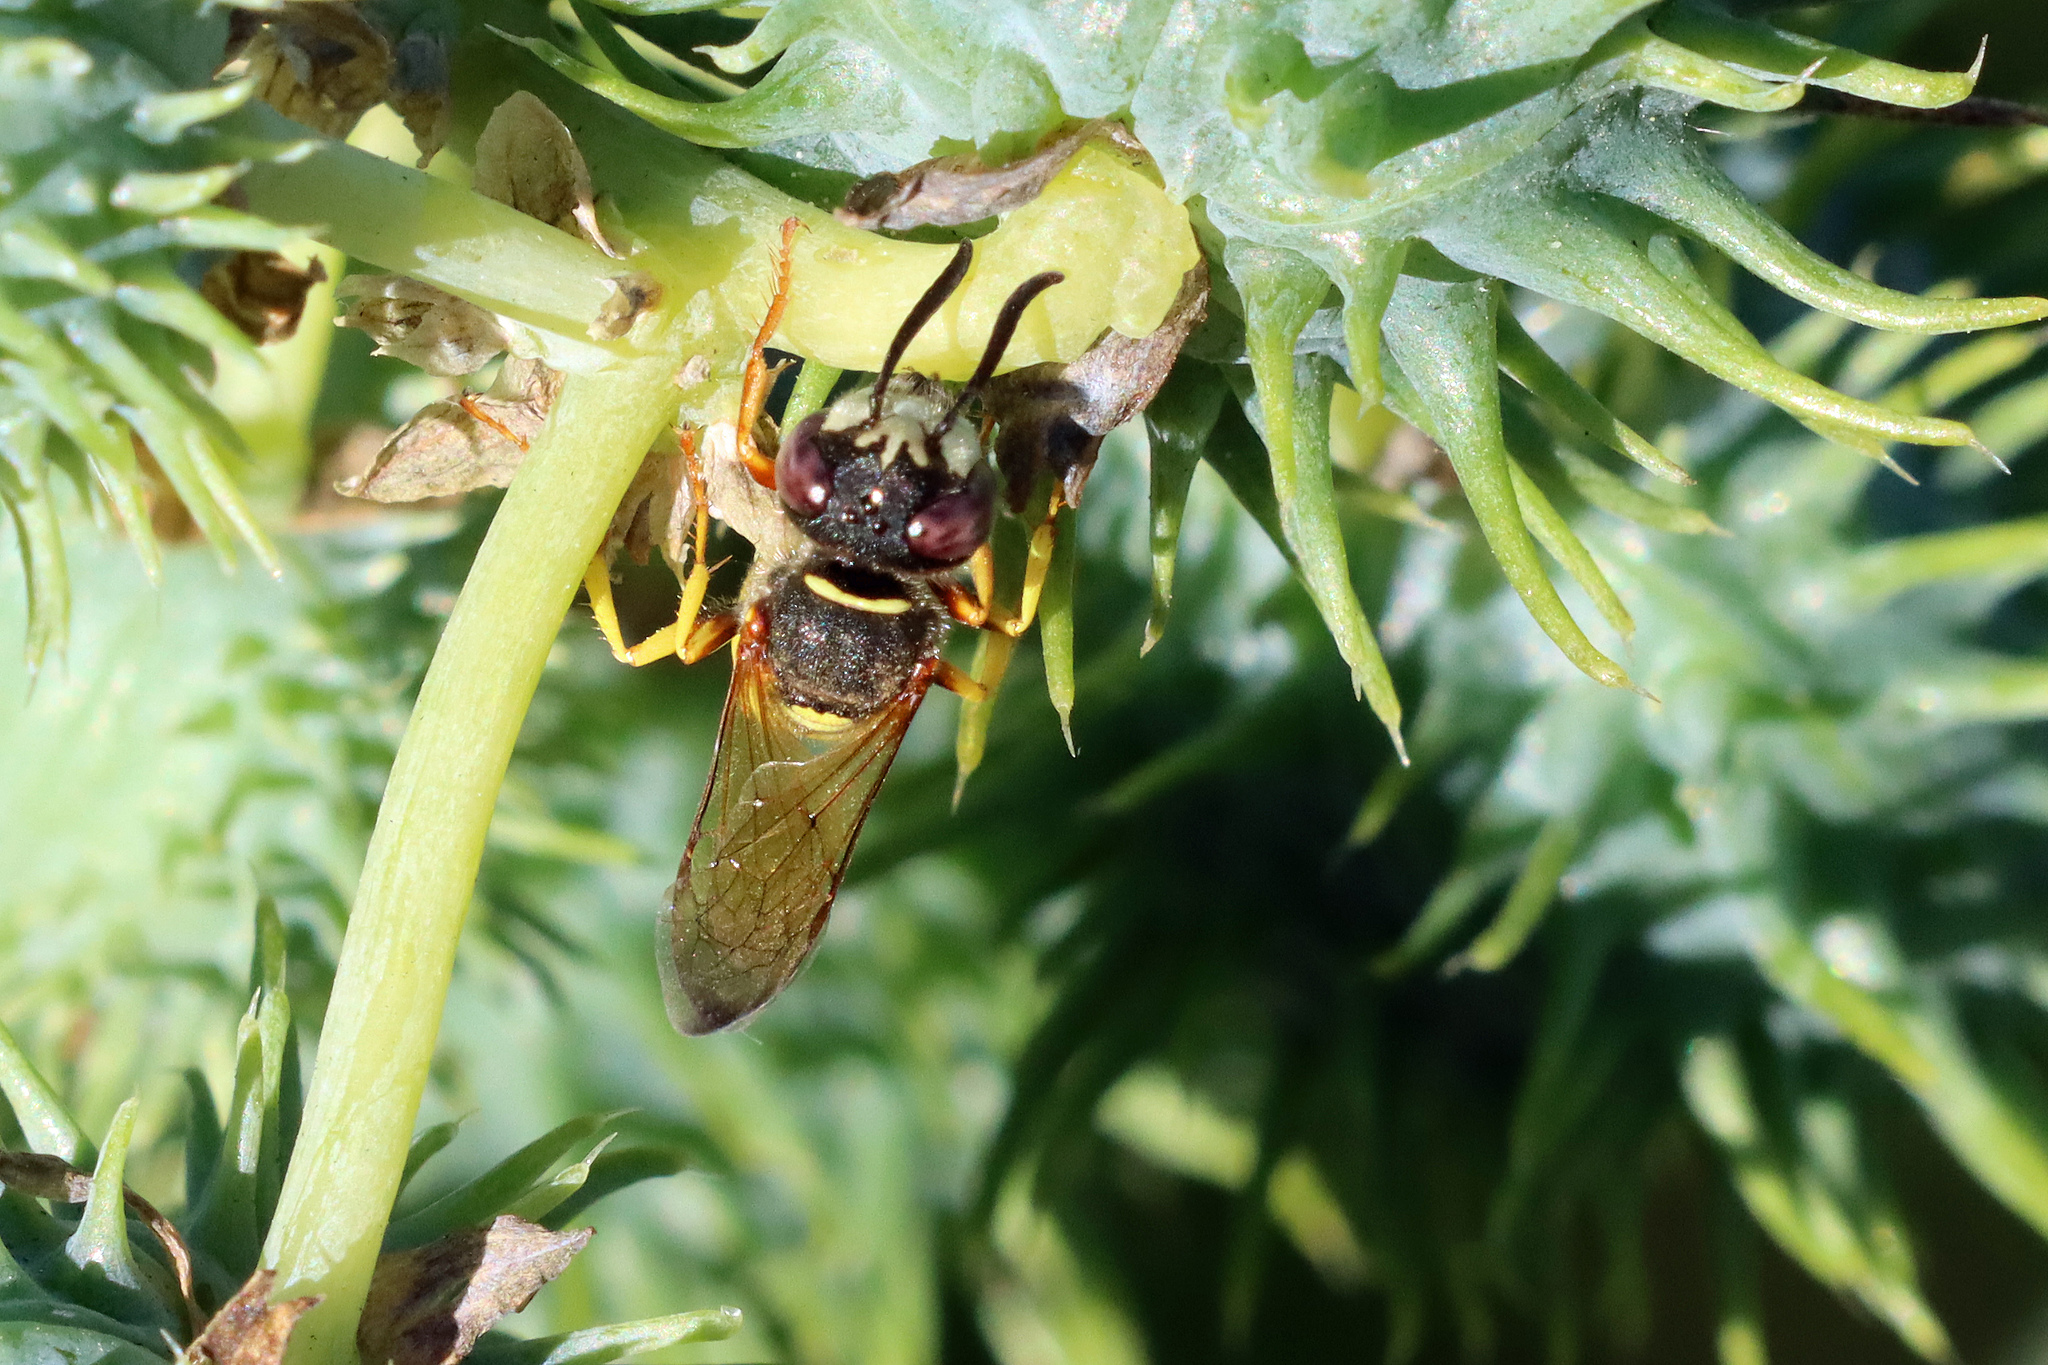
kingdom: Animalia
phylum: Arthropoda
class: Insecta
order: Hymenoptera
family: Crabronidae
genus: Philanthus
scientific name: Philanthus triangulum
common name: Bee wolf
